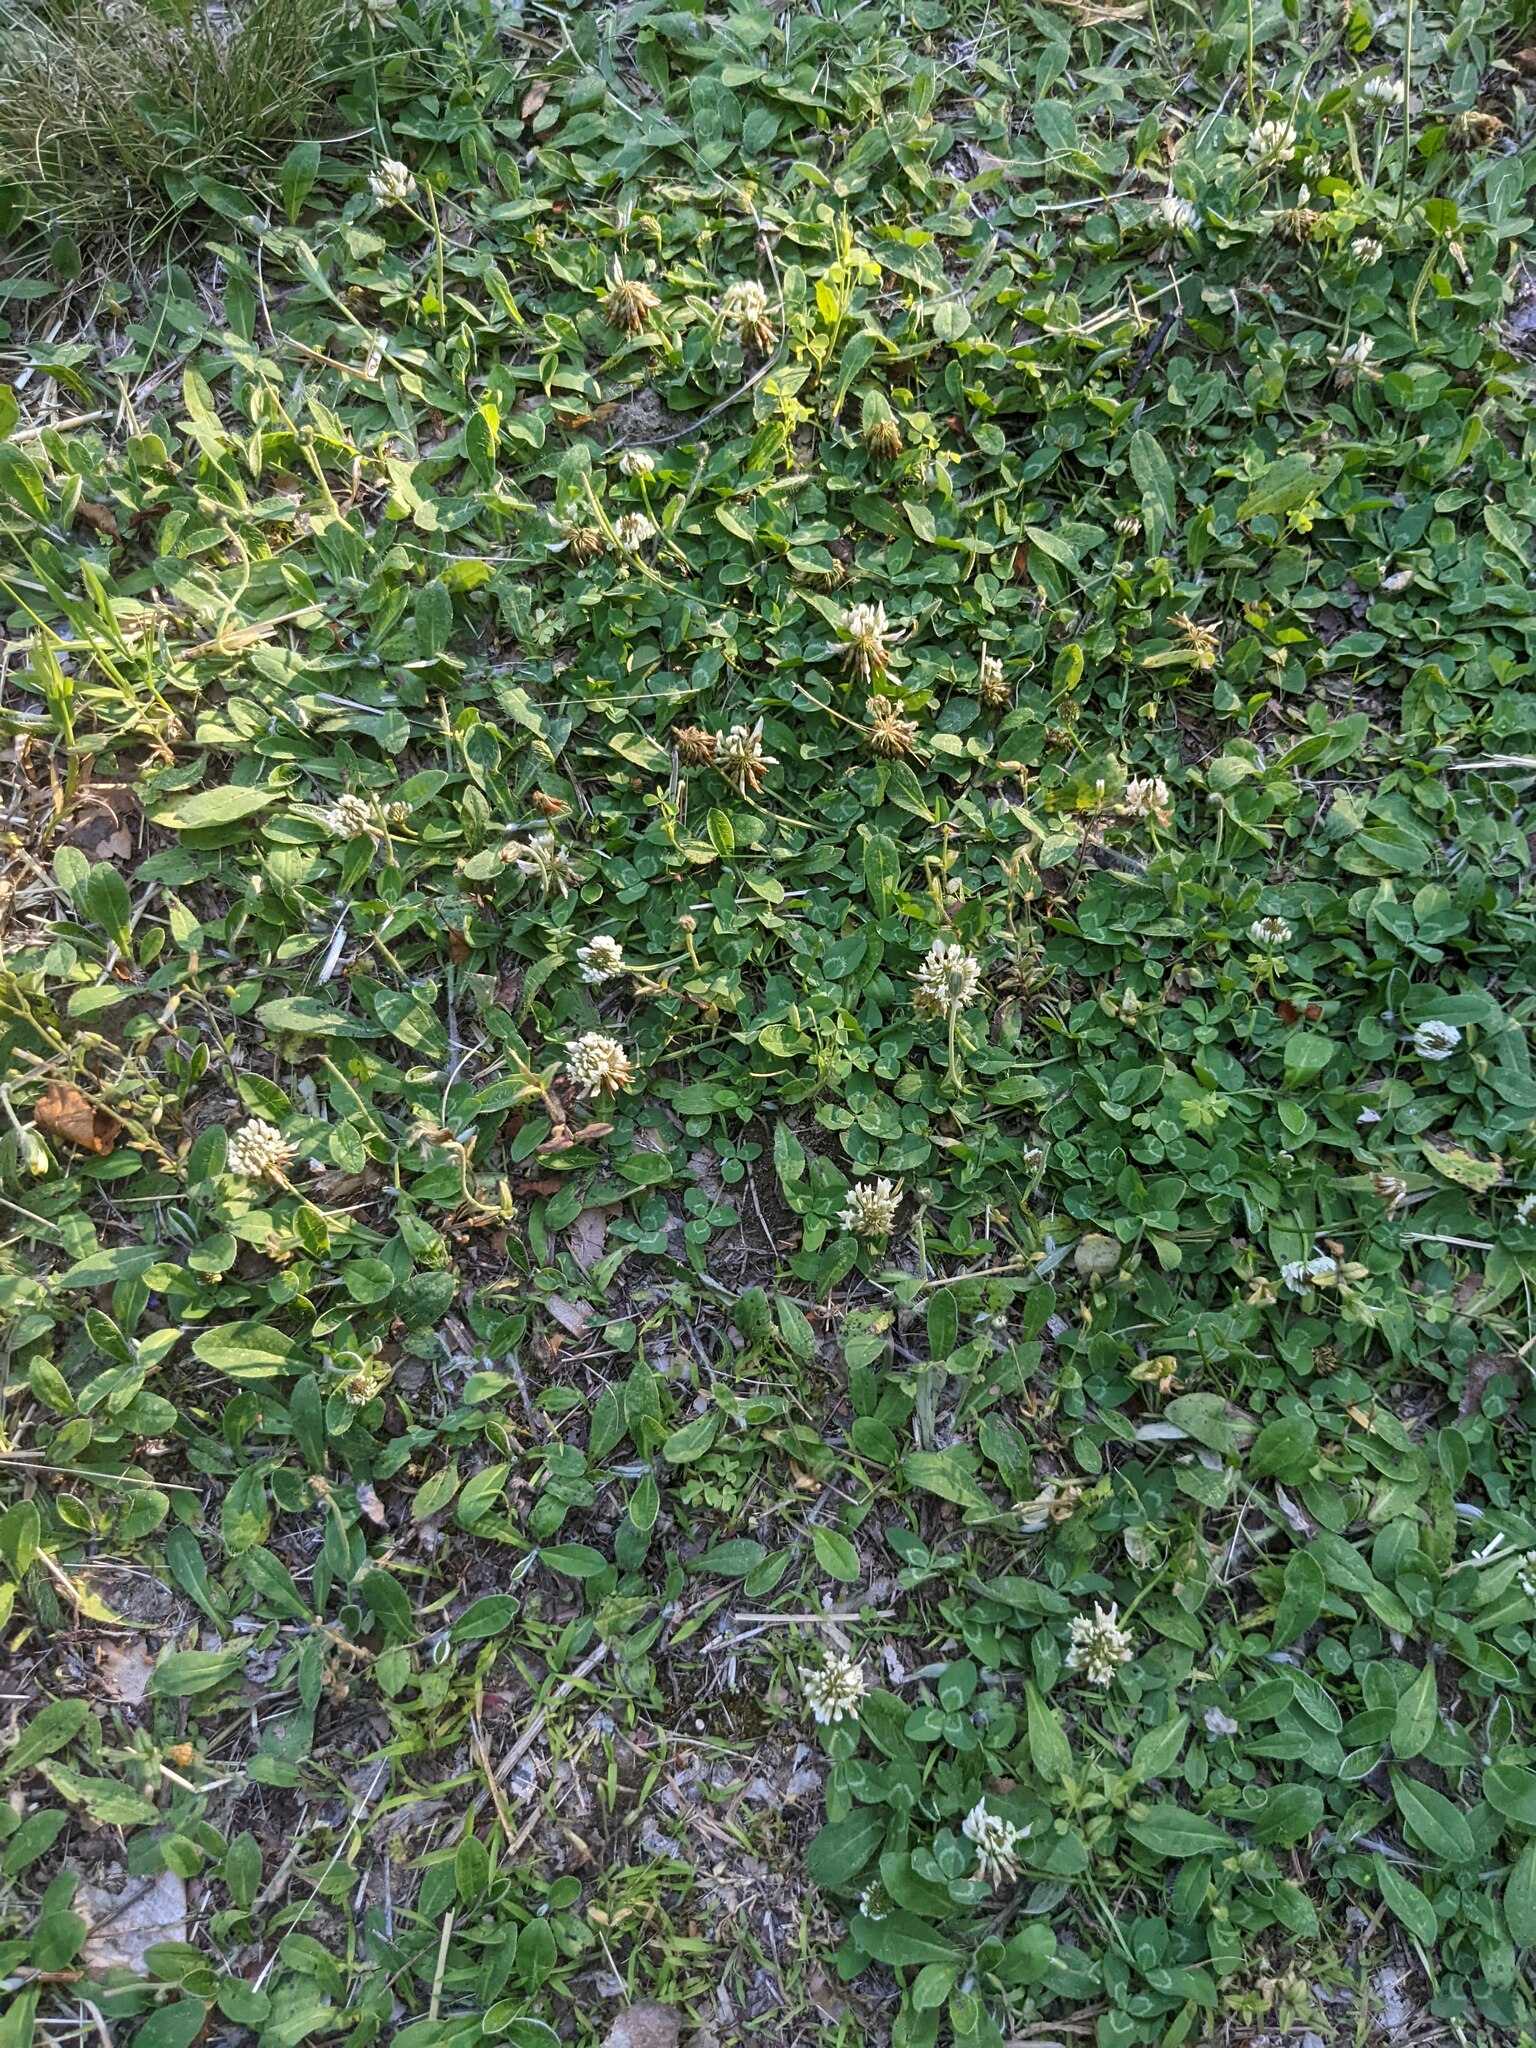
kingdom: Plantae
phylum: Tracheophyta
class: Magnoliopsida
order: Fabales
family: Fabaceae
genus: Trifolium
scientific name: Trifolium repens
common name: White clover
